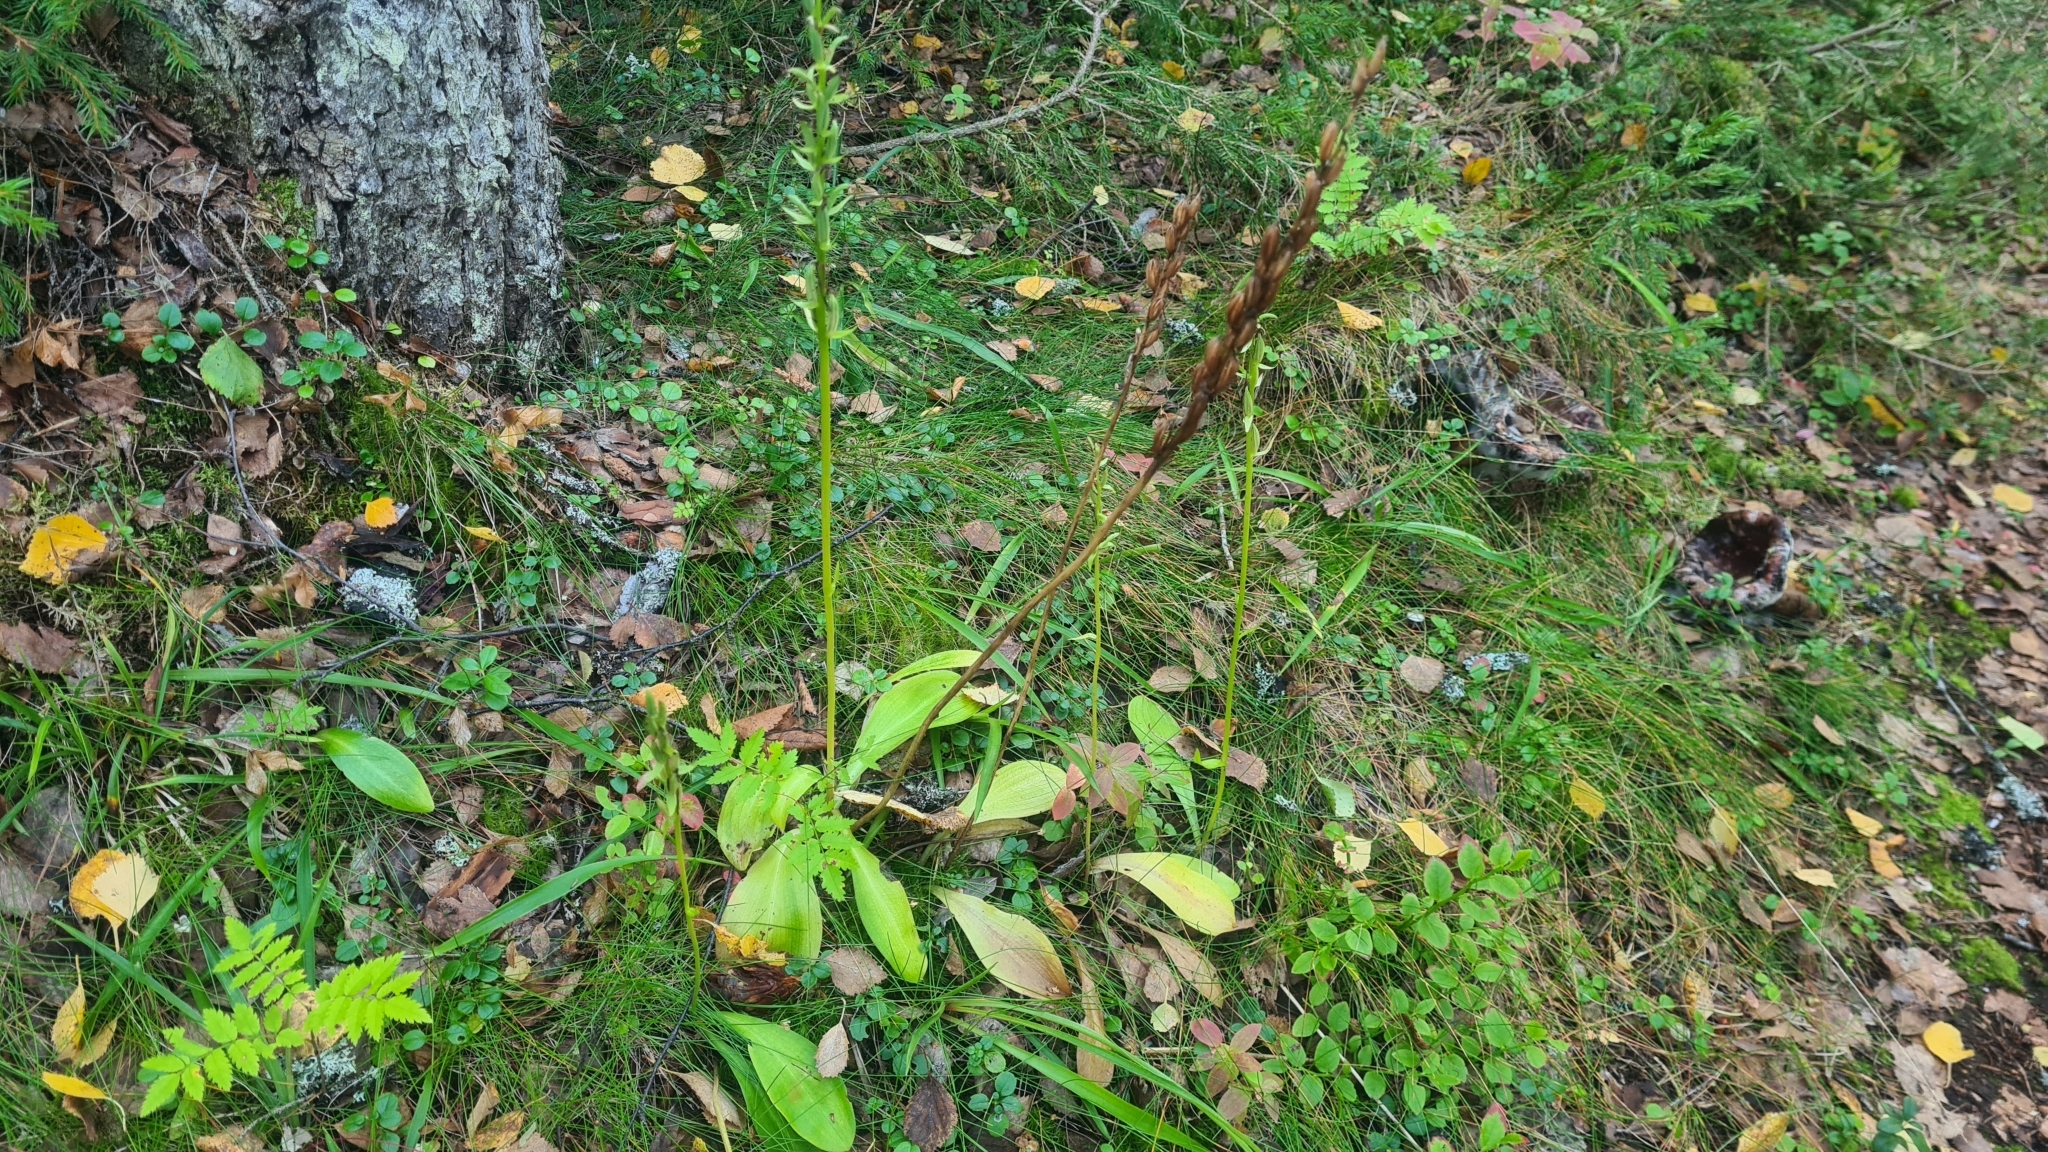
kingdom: Plantae
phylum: Tracheophyta
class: Liliopsida
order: Asparagales
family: Orchidaceae
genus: Platanthera
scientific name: Platanthera bifolia
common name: Lesser butterfly-orchid
